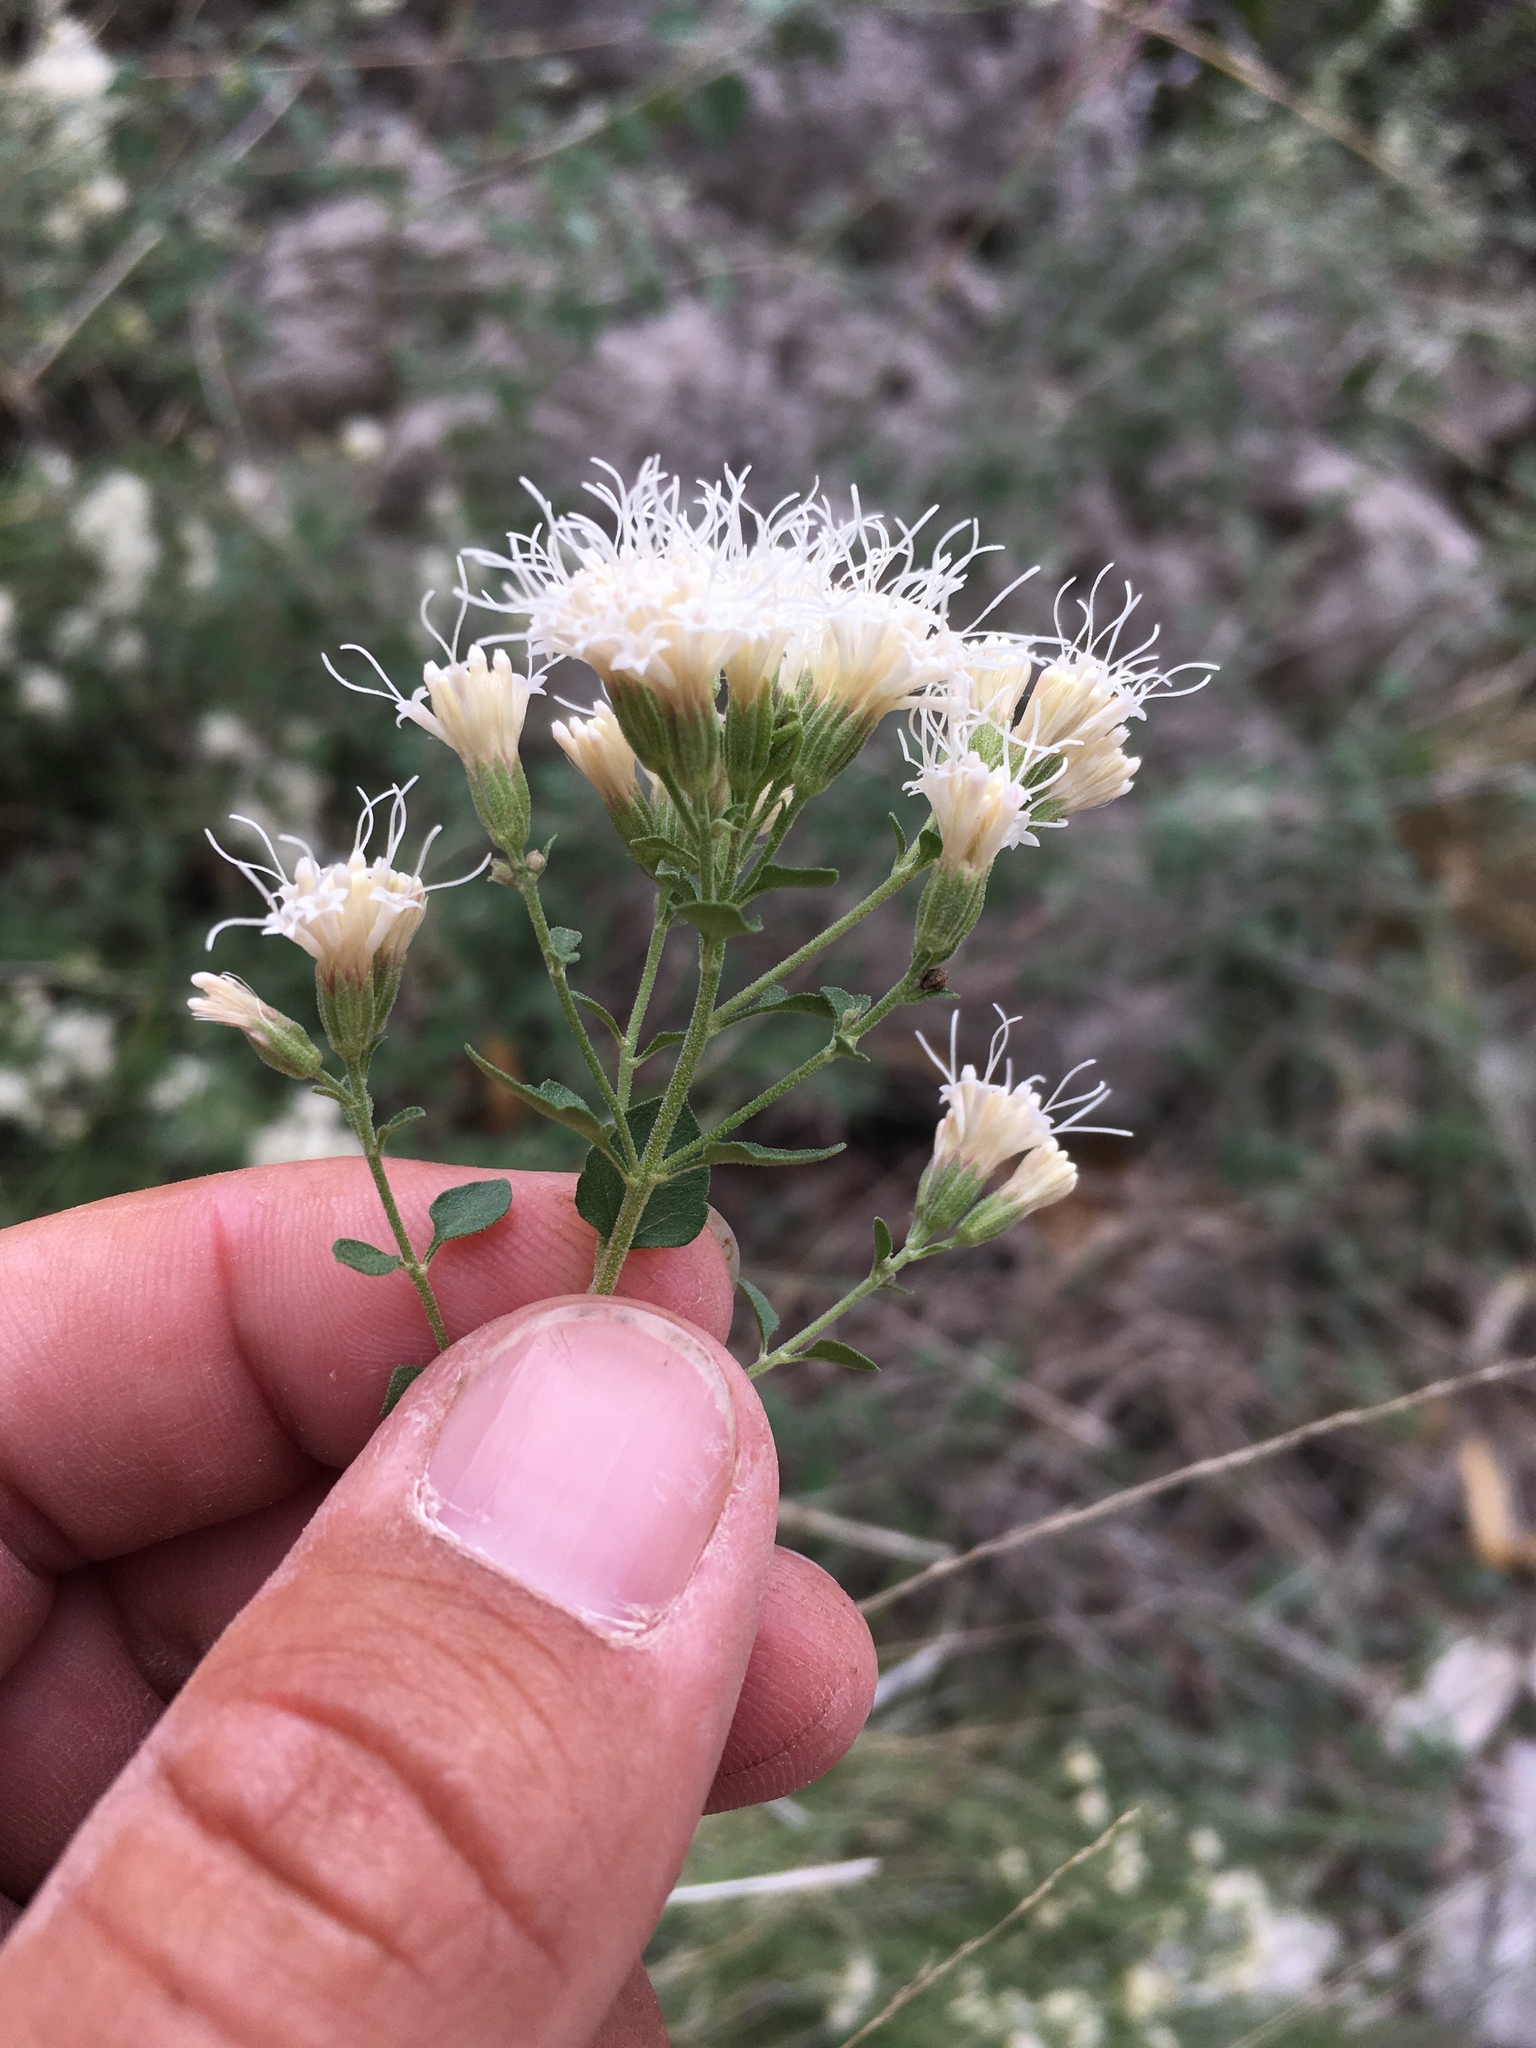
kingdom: Plantae
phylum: Tracheophyta
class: Magnoliopsida
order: Asterales
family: Asteraceae
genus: Ageratina
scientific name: Ageratina wrightii
